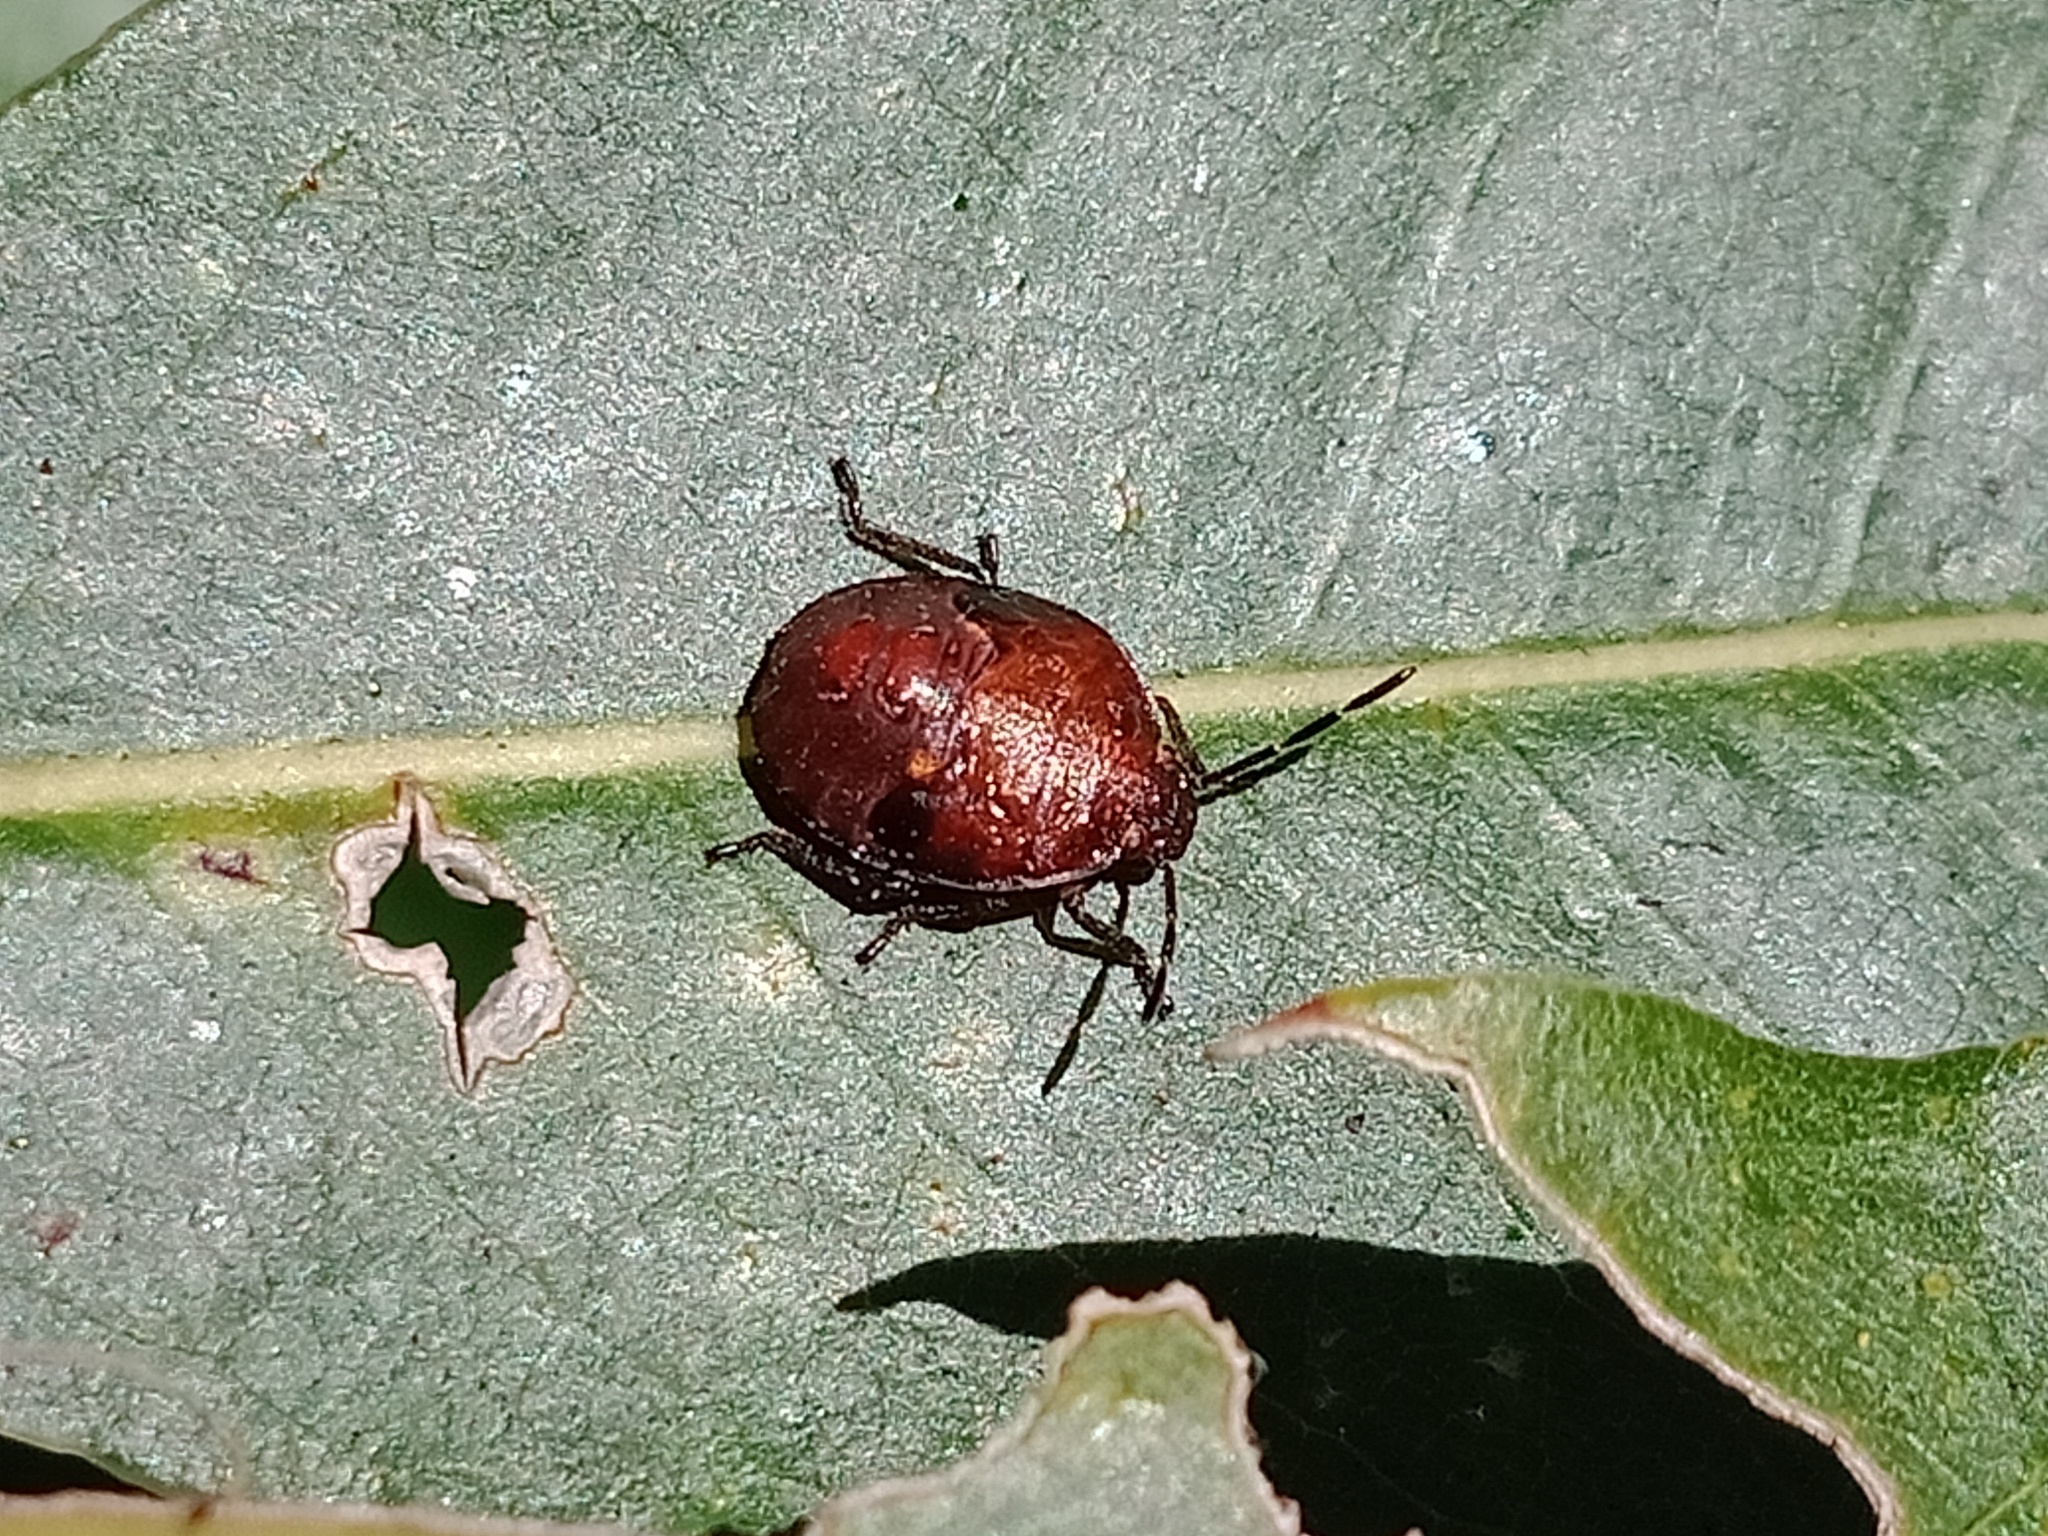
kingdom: Animalia
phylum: Arthropoda
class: Insecta
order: Hemiptera
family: Pentatomidae
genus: Monteithiella
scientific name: Monteithiella
